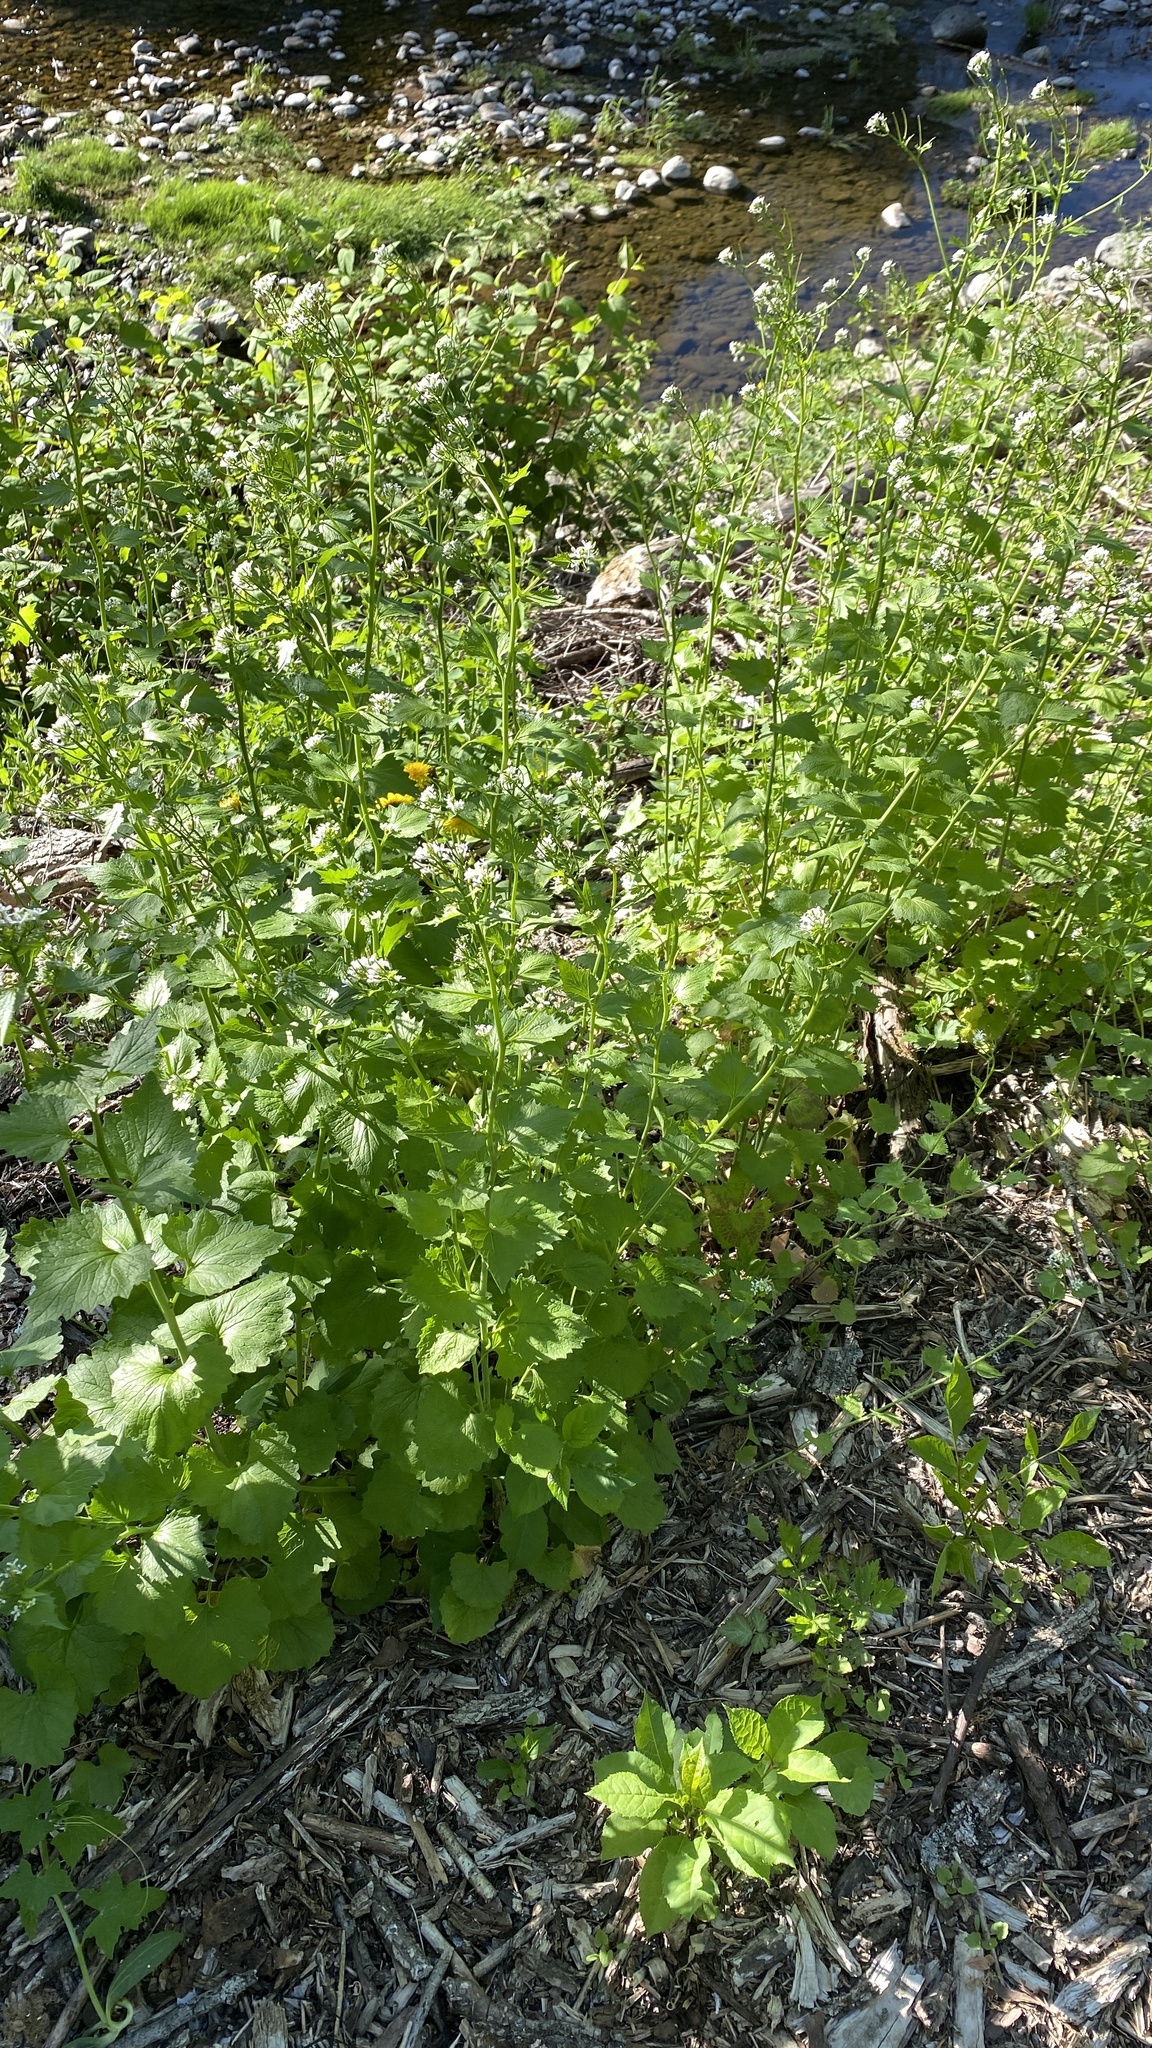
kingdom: Plantae
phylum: Tracheophyta
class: Magnoliopsida
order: Brassicales
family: Brassicaceae
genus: Alliaria
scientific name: Alliaria petiolata
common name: Garlic mustard
